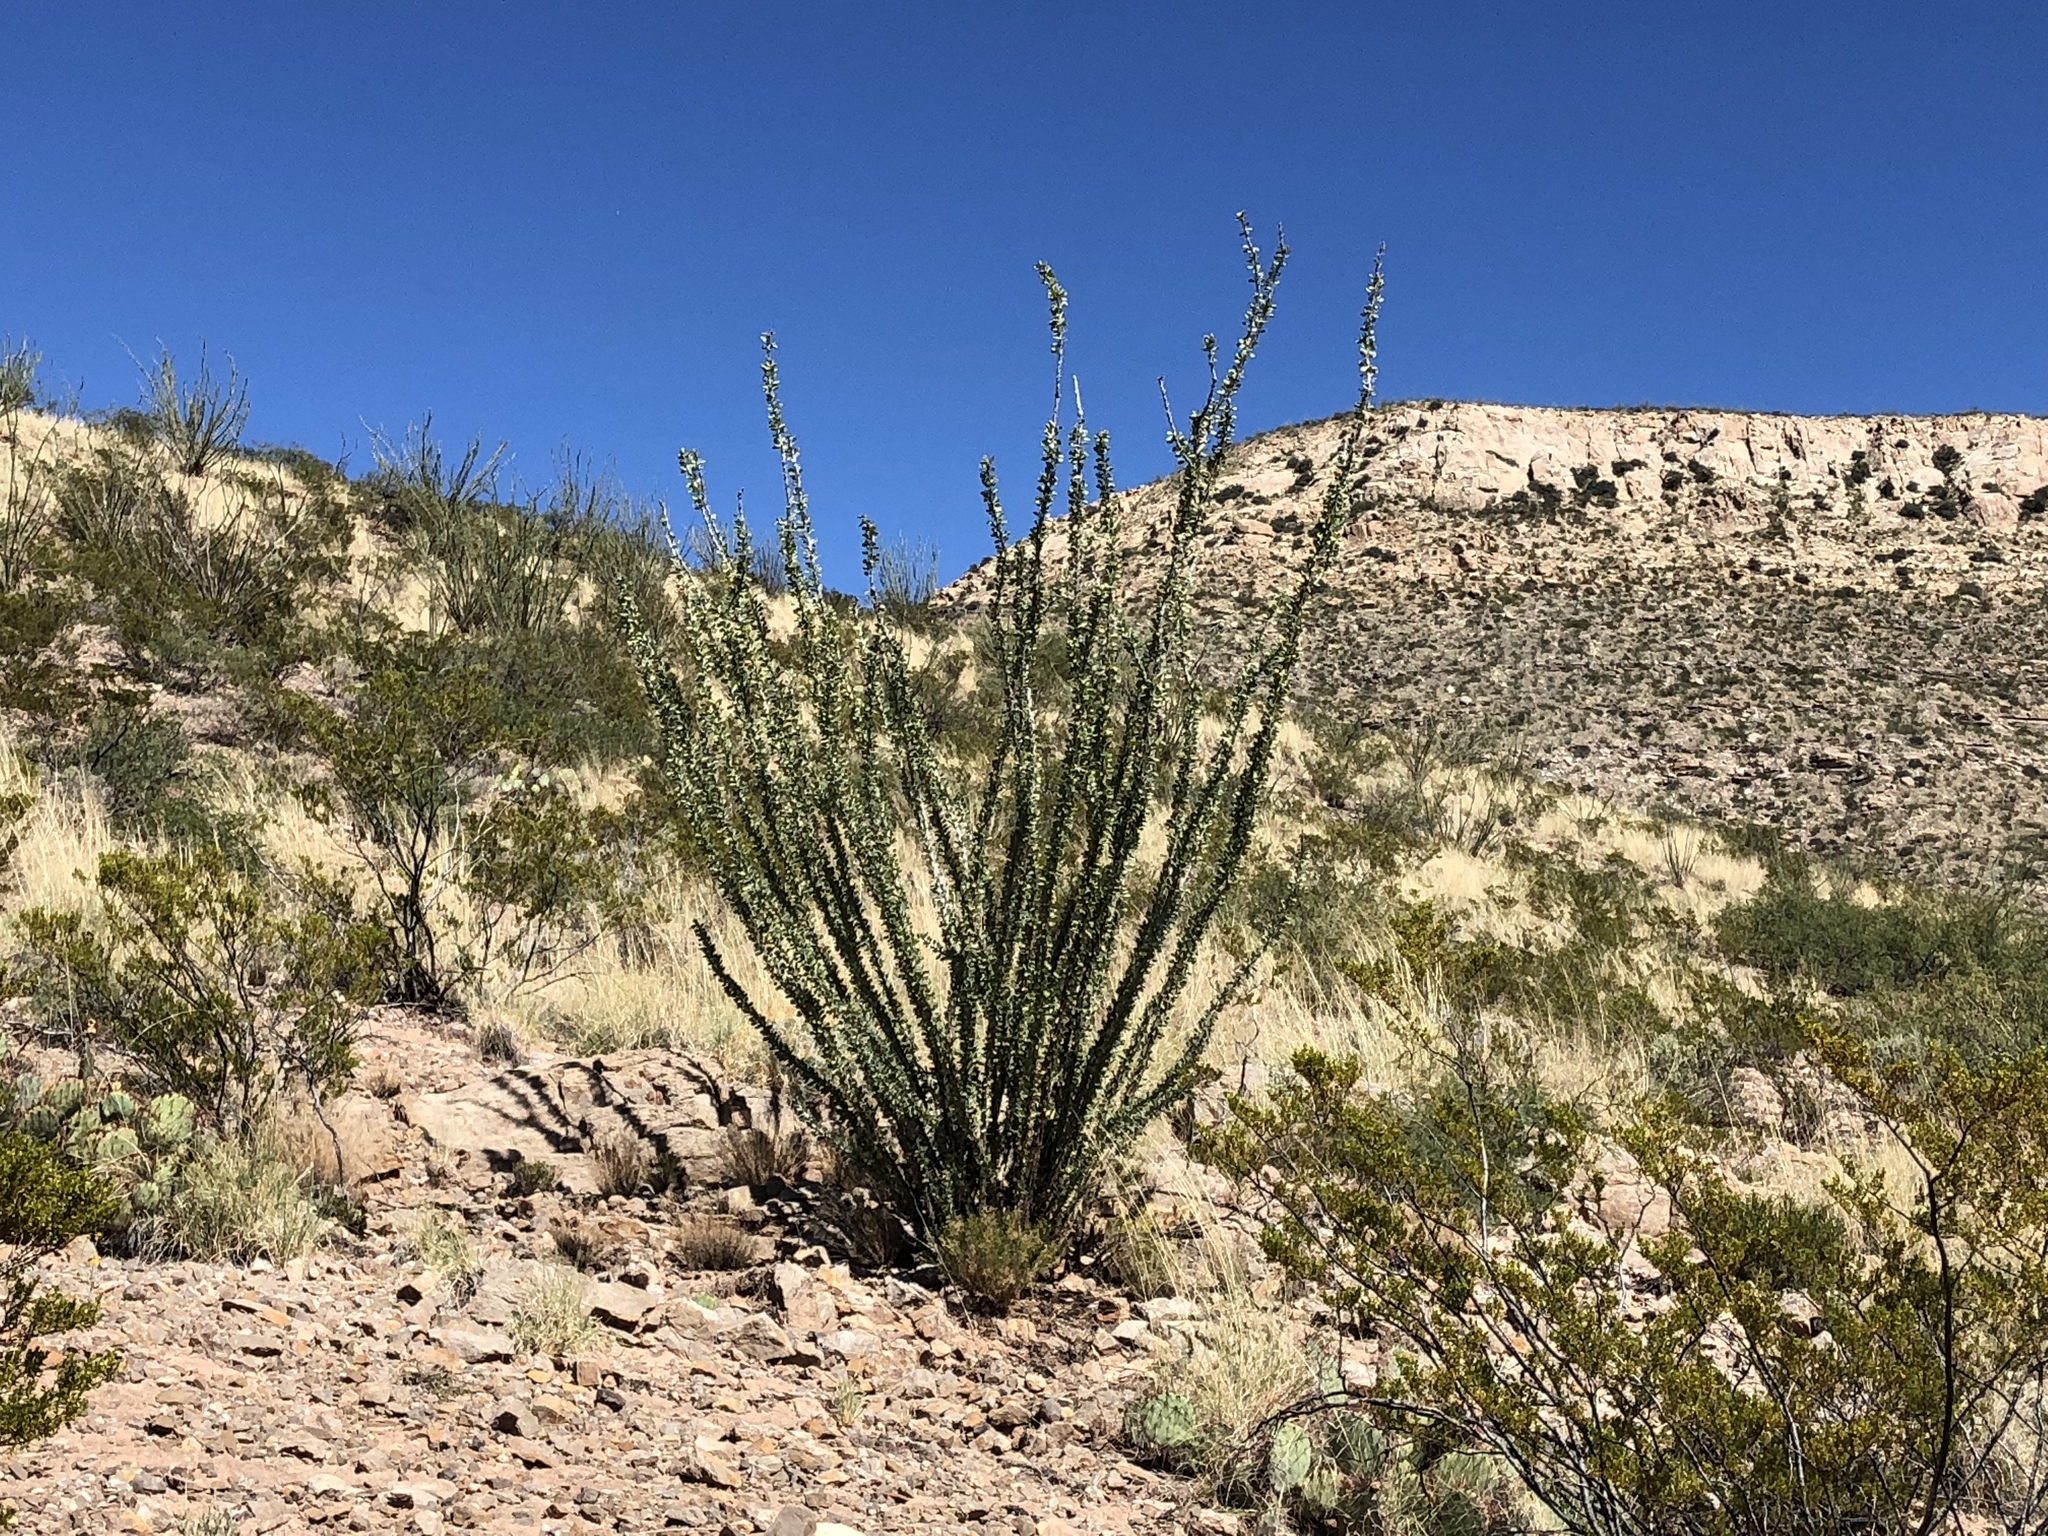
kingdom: Plantae
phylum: Tracheophyta
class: Magnoliopsida
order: Ericales
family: Fouquieriaceae
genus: Fouquieria
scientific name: Fouquieria splendens
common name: Vine-cactus
